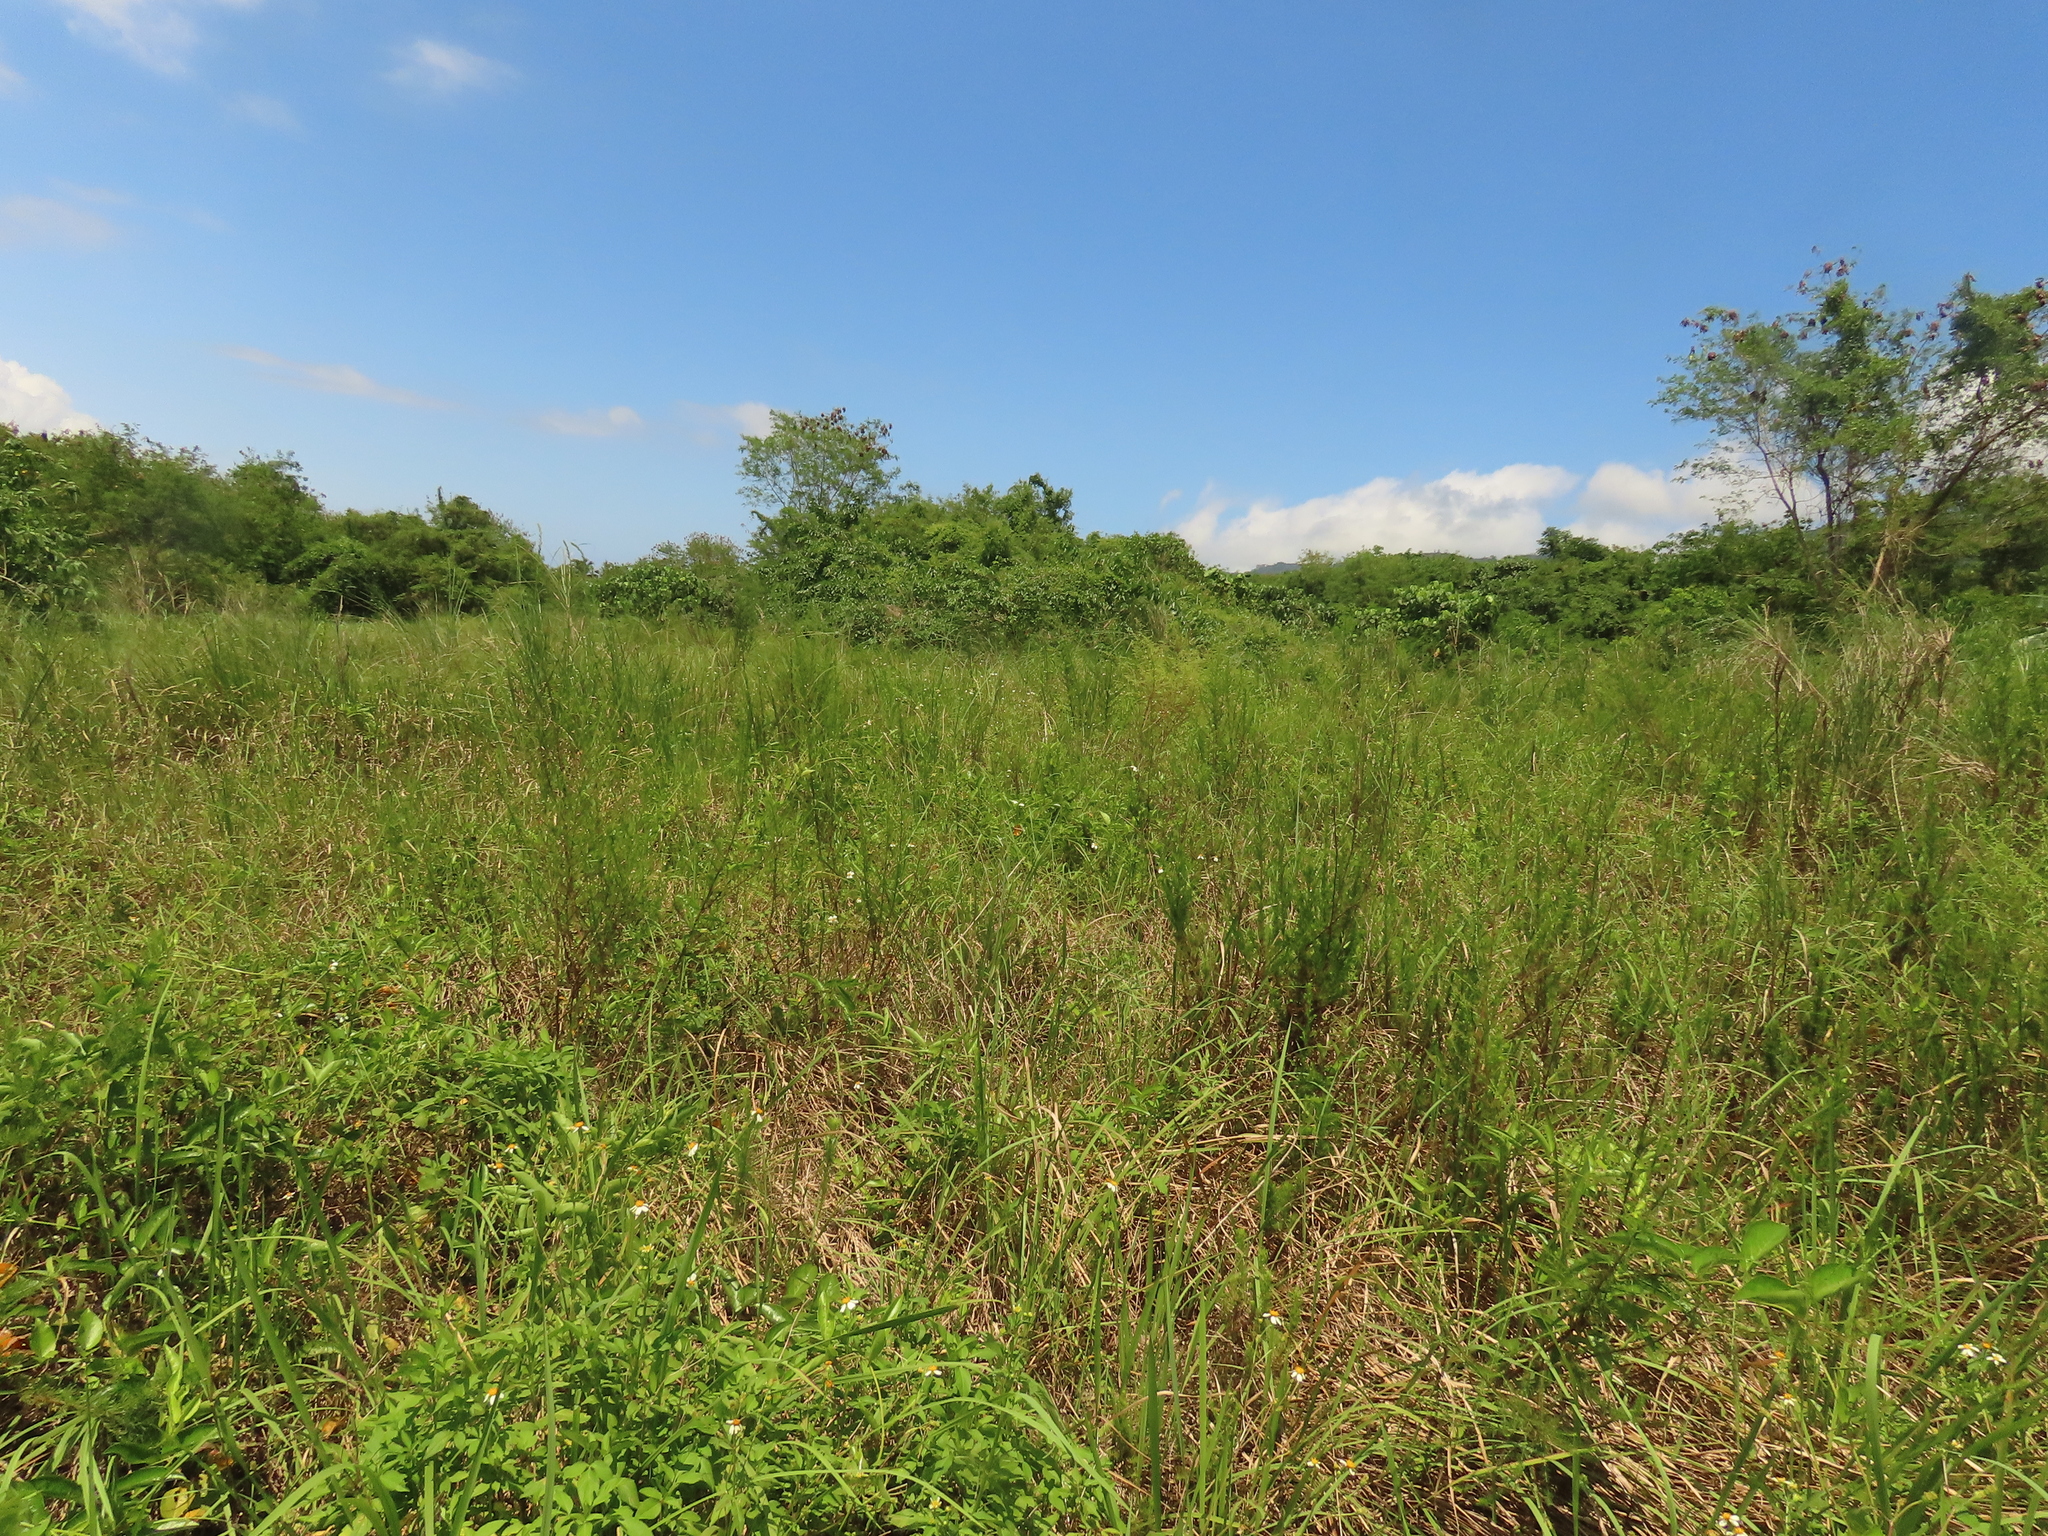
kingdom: Plantae
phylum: Tracheophyta
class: Magnoliopsida
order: Asterales
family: Asteraceae
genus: Artemisia
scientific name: Artemisia capillaris
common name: Yin-chen wormwood
